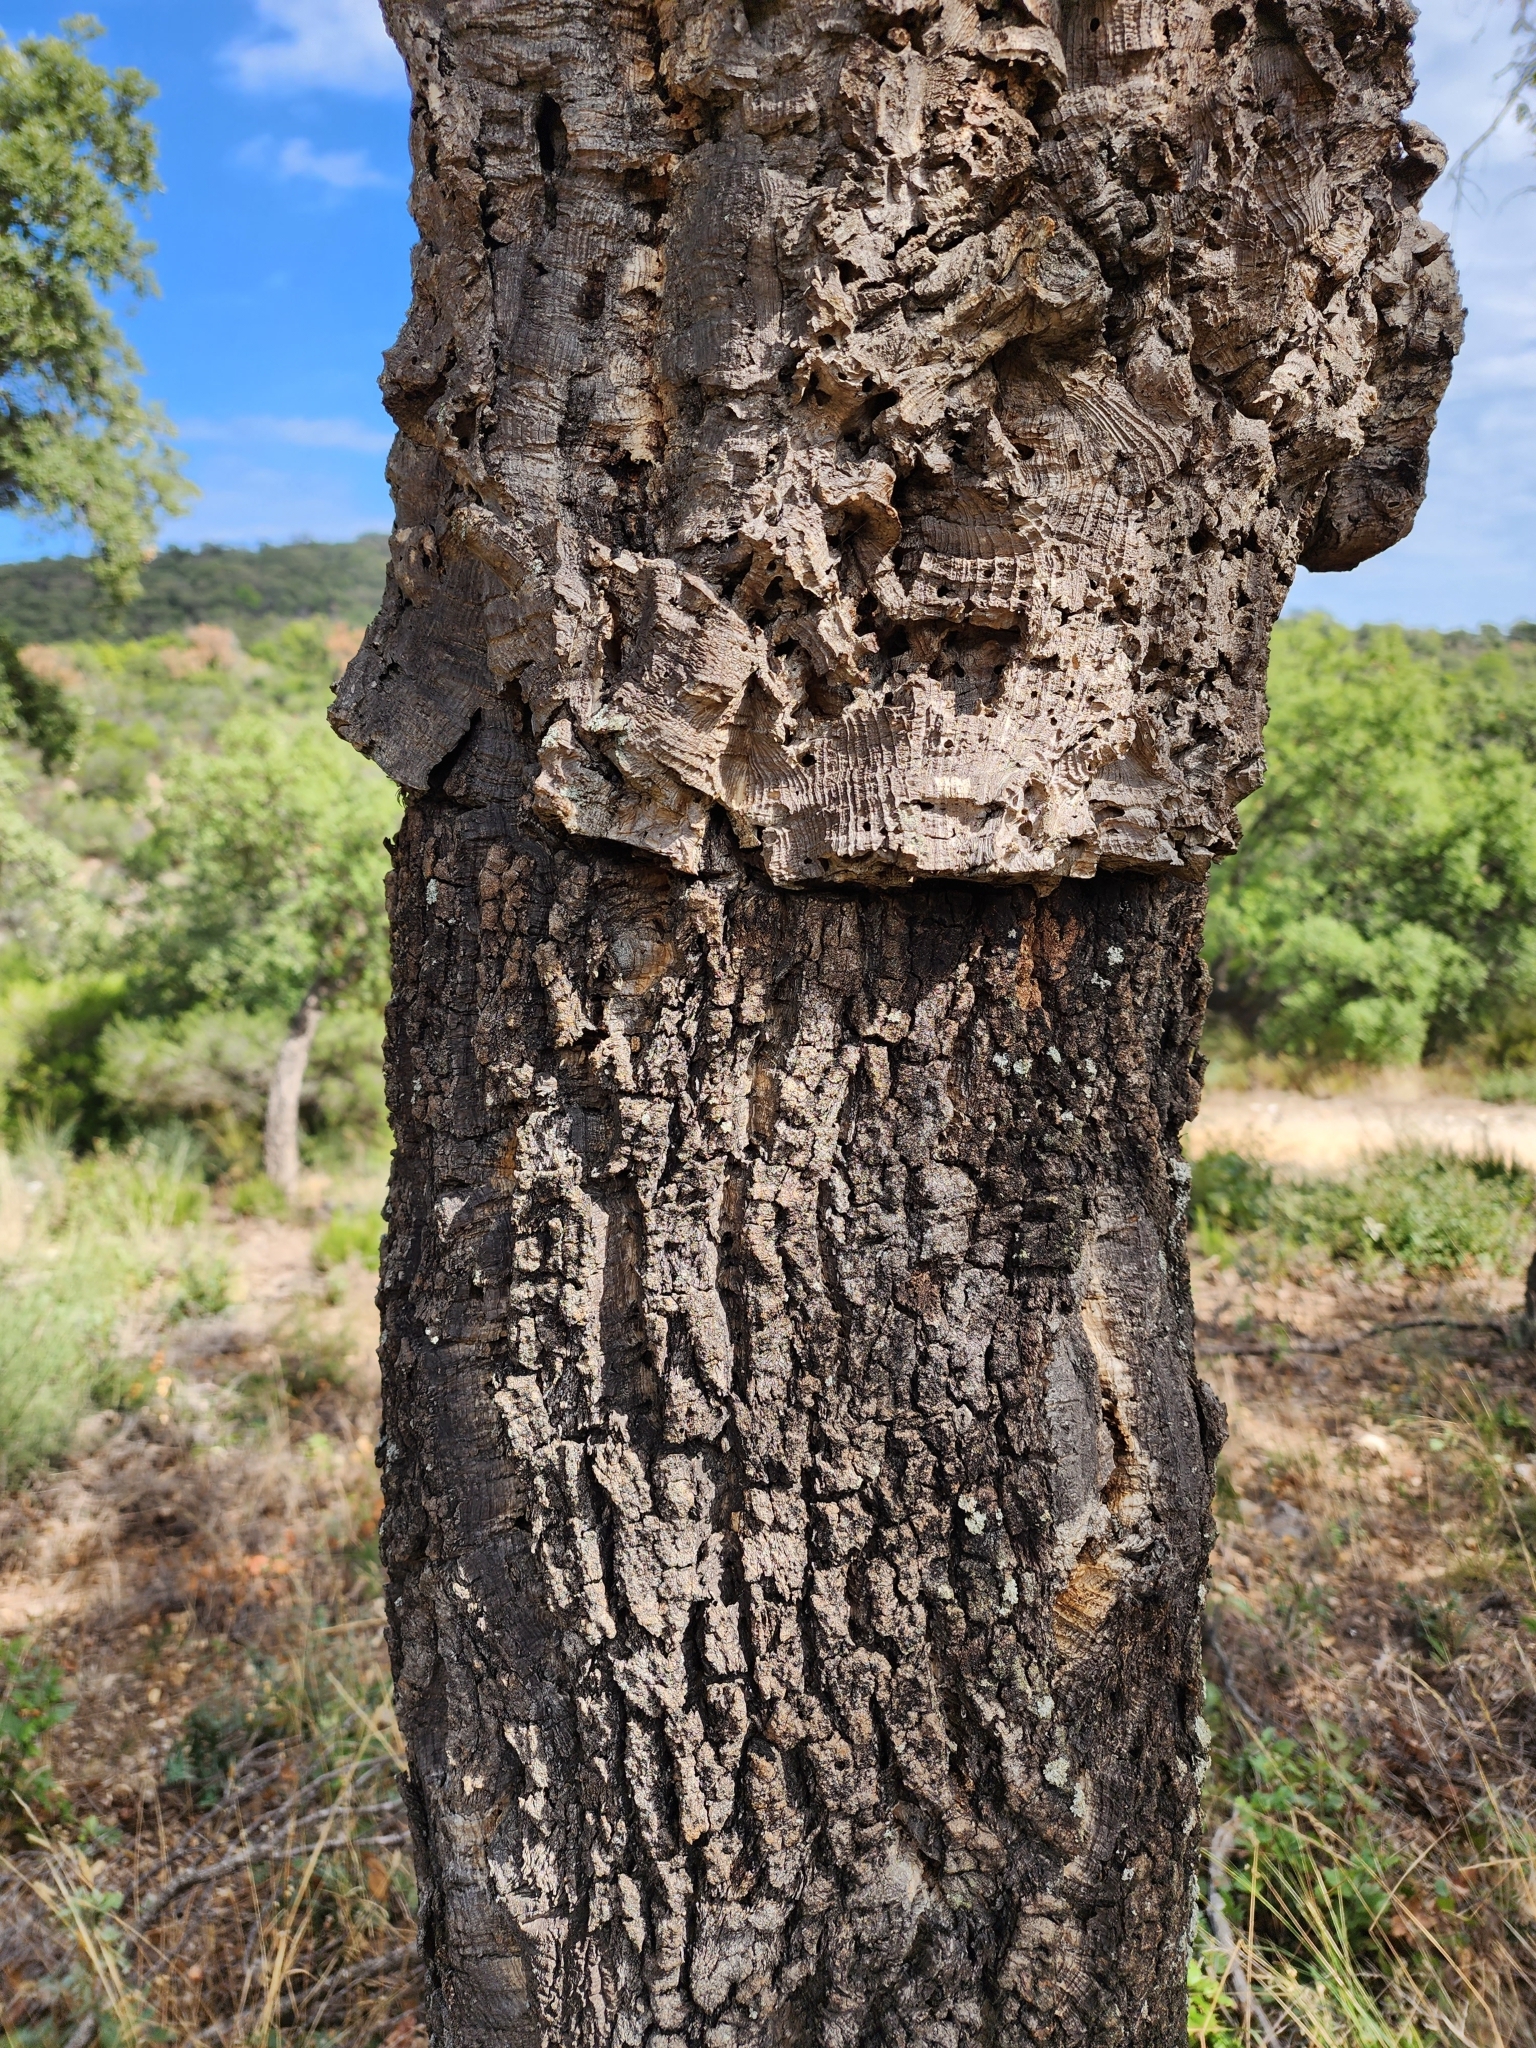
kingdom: Plantae
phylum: Tracheophyta
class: Magnoliopsida
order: Fagales
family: Fagaceae
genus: Quercus
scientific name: Quercus suber
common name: Cork oak
